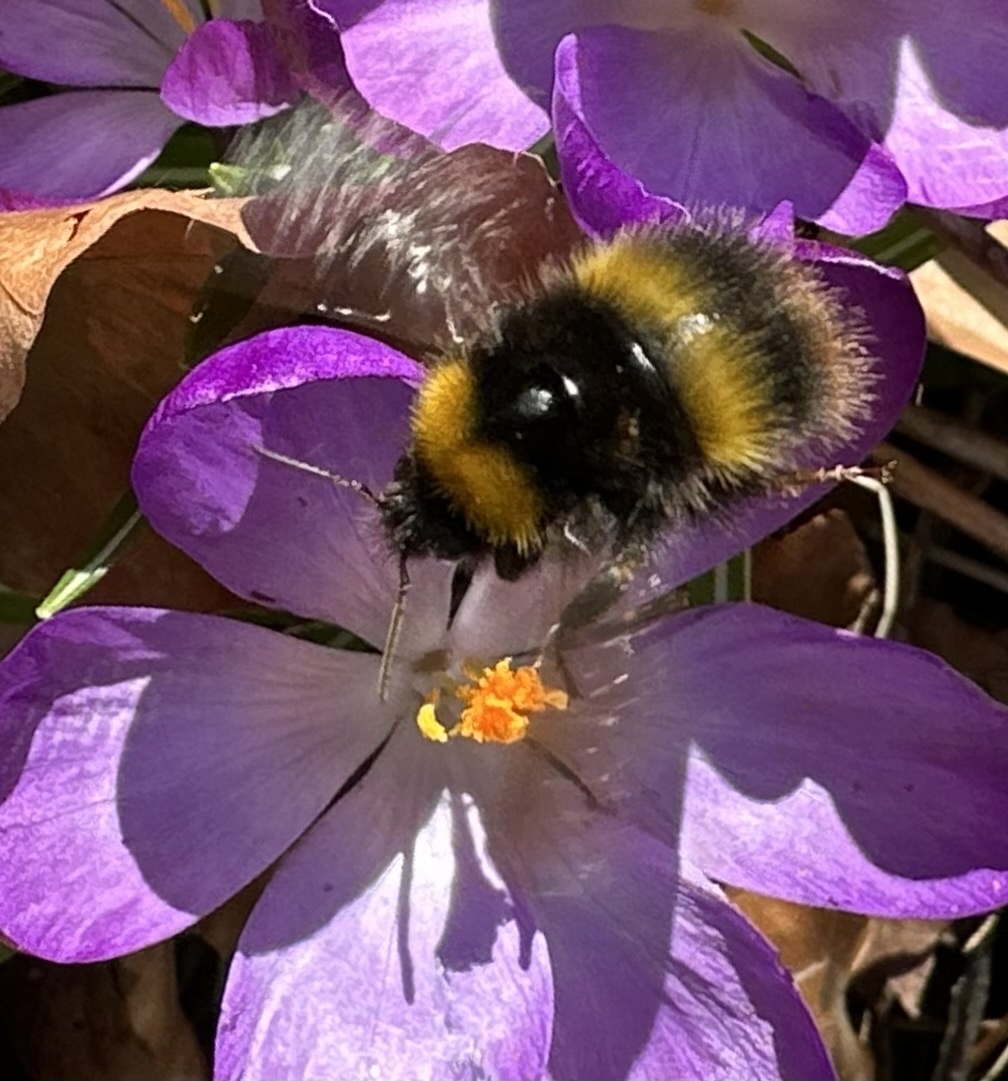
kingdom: Animalia
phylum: Arthropoda
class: Insecta
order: Hymenoptera
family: Apidae
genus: Bombus
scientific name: Bombus pratorum
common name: Early humble-bee
